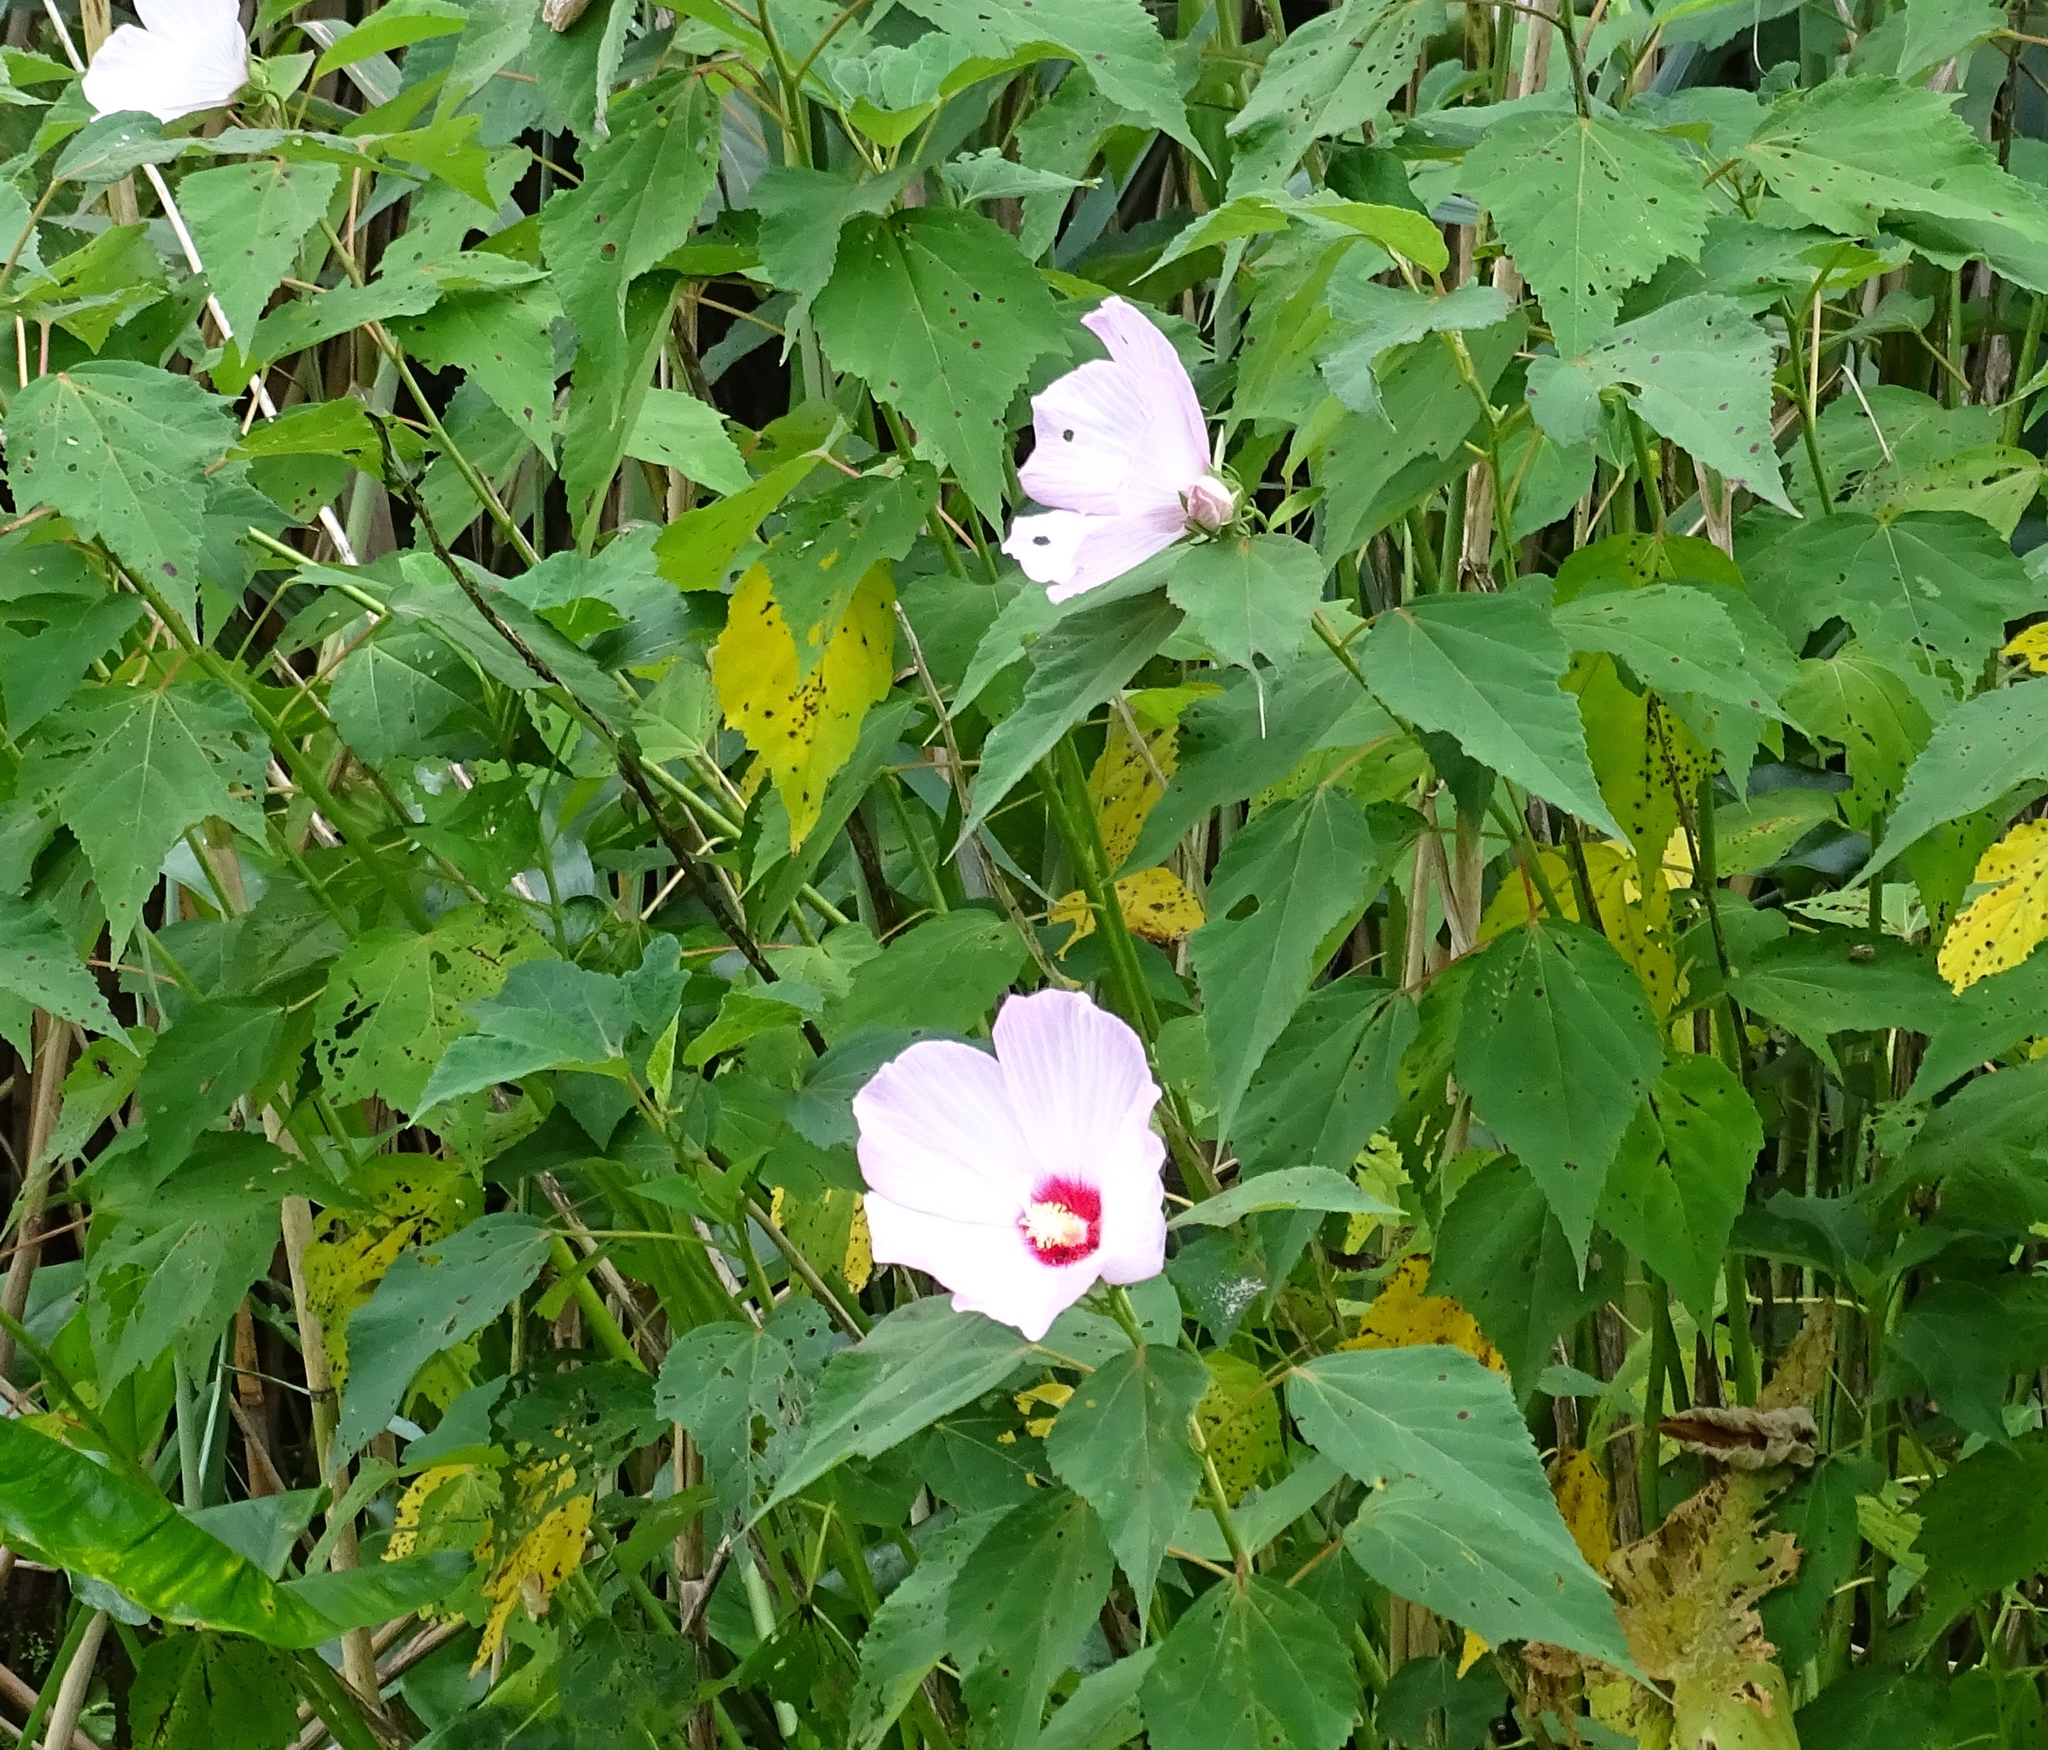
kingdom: Plantae
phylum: Tracheophyta
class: Magnoliopsida
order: Malvales
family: Malvaceae
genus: Hibiscus
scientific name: Hibiscus moscheutos
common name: Common rose-mallow
